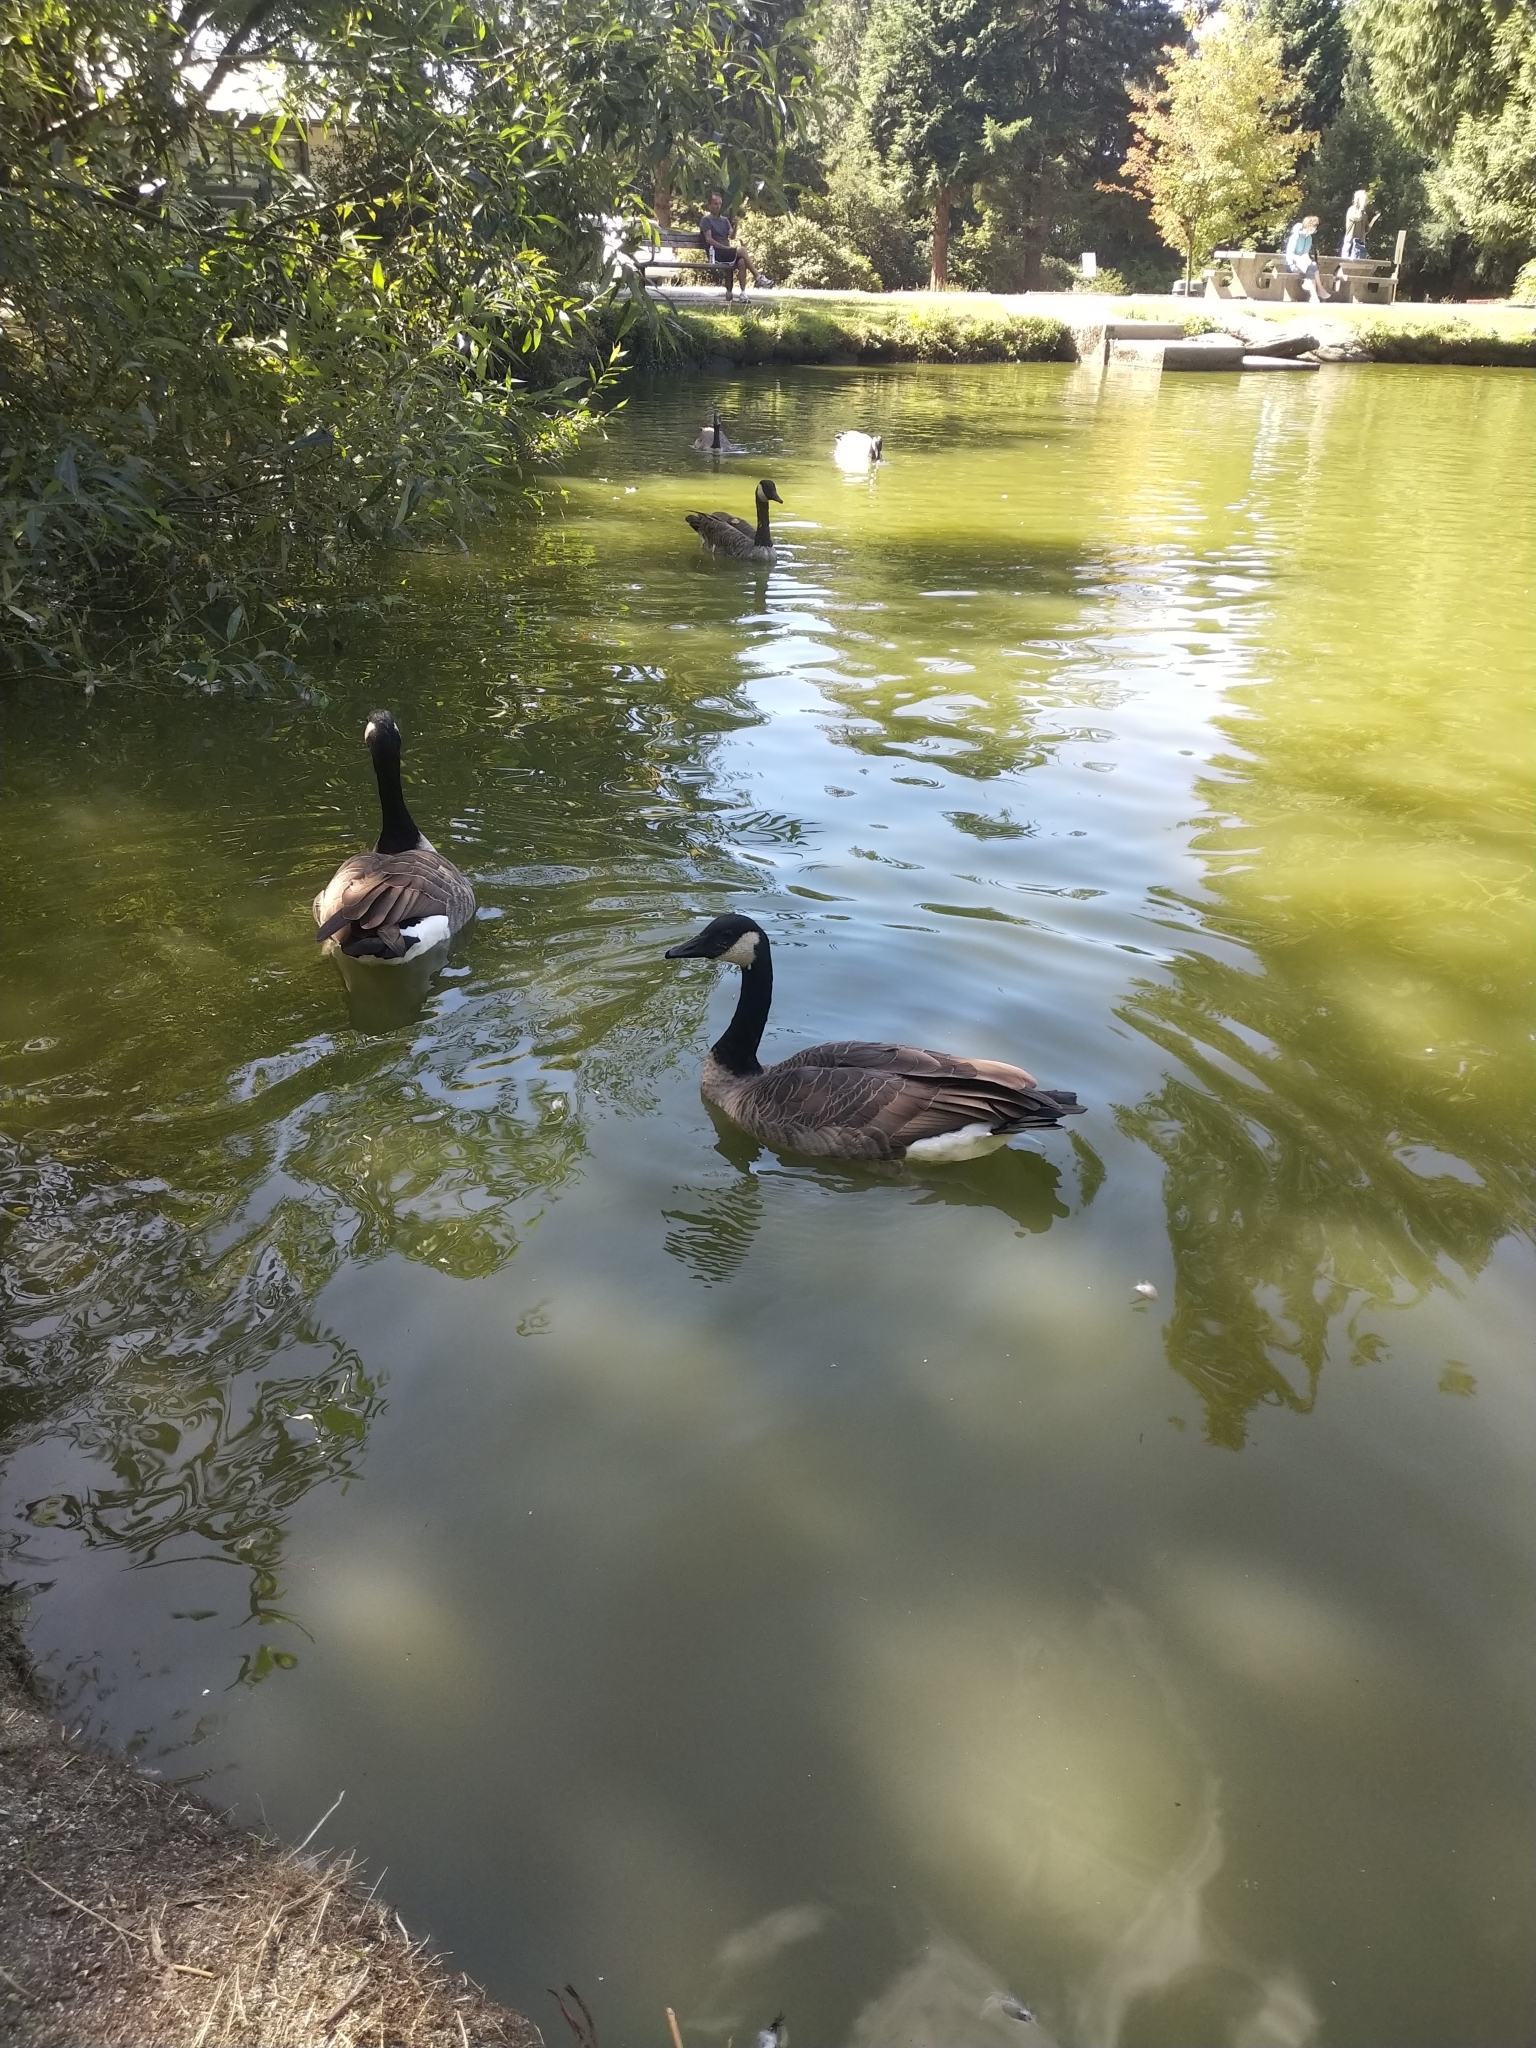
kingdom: Animalia
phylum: Chordata
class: Aves
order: Anseriformes
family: Anatidae
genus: Branta
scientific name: Branta canadensis
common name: Canada goose
